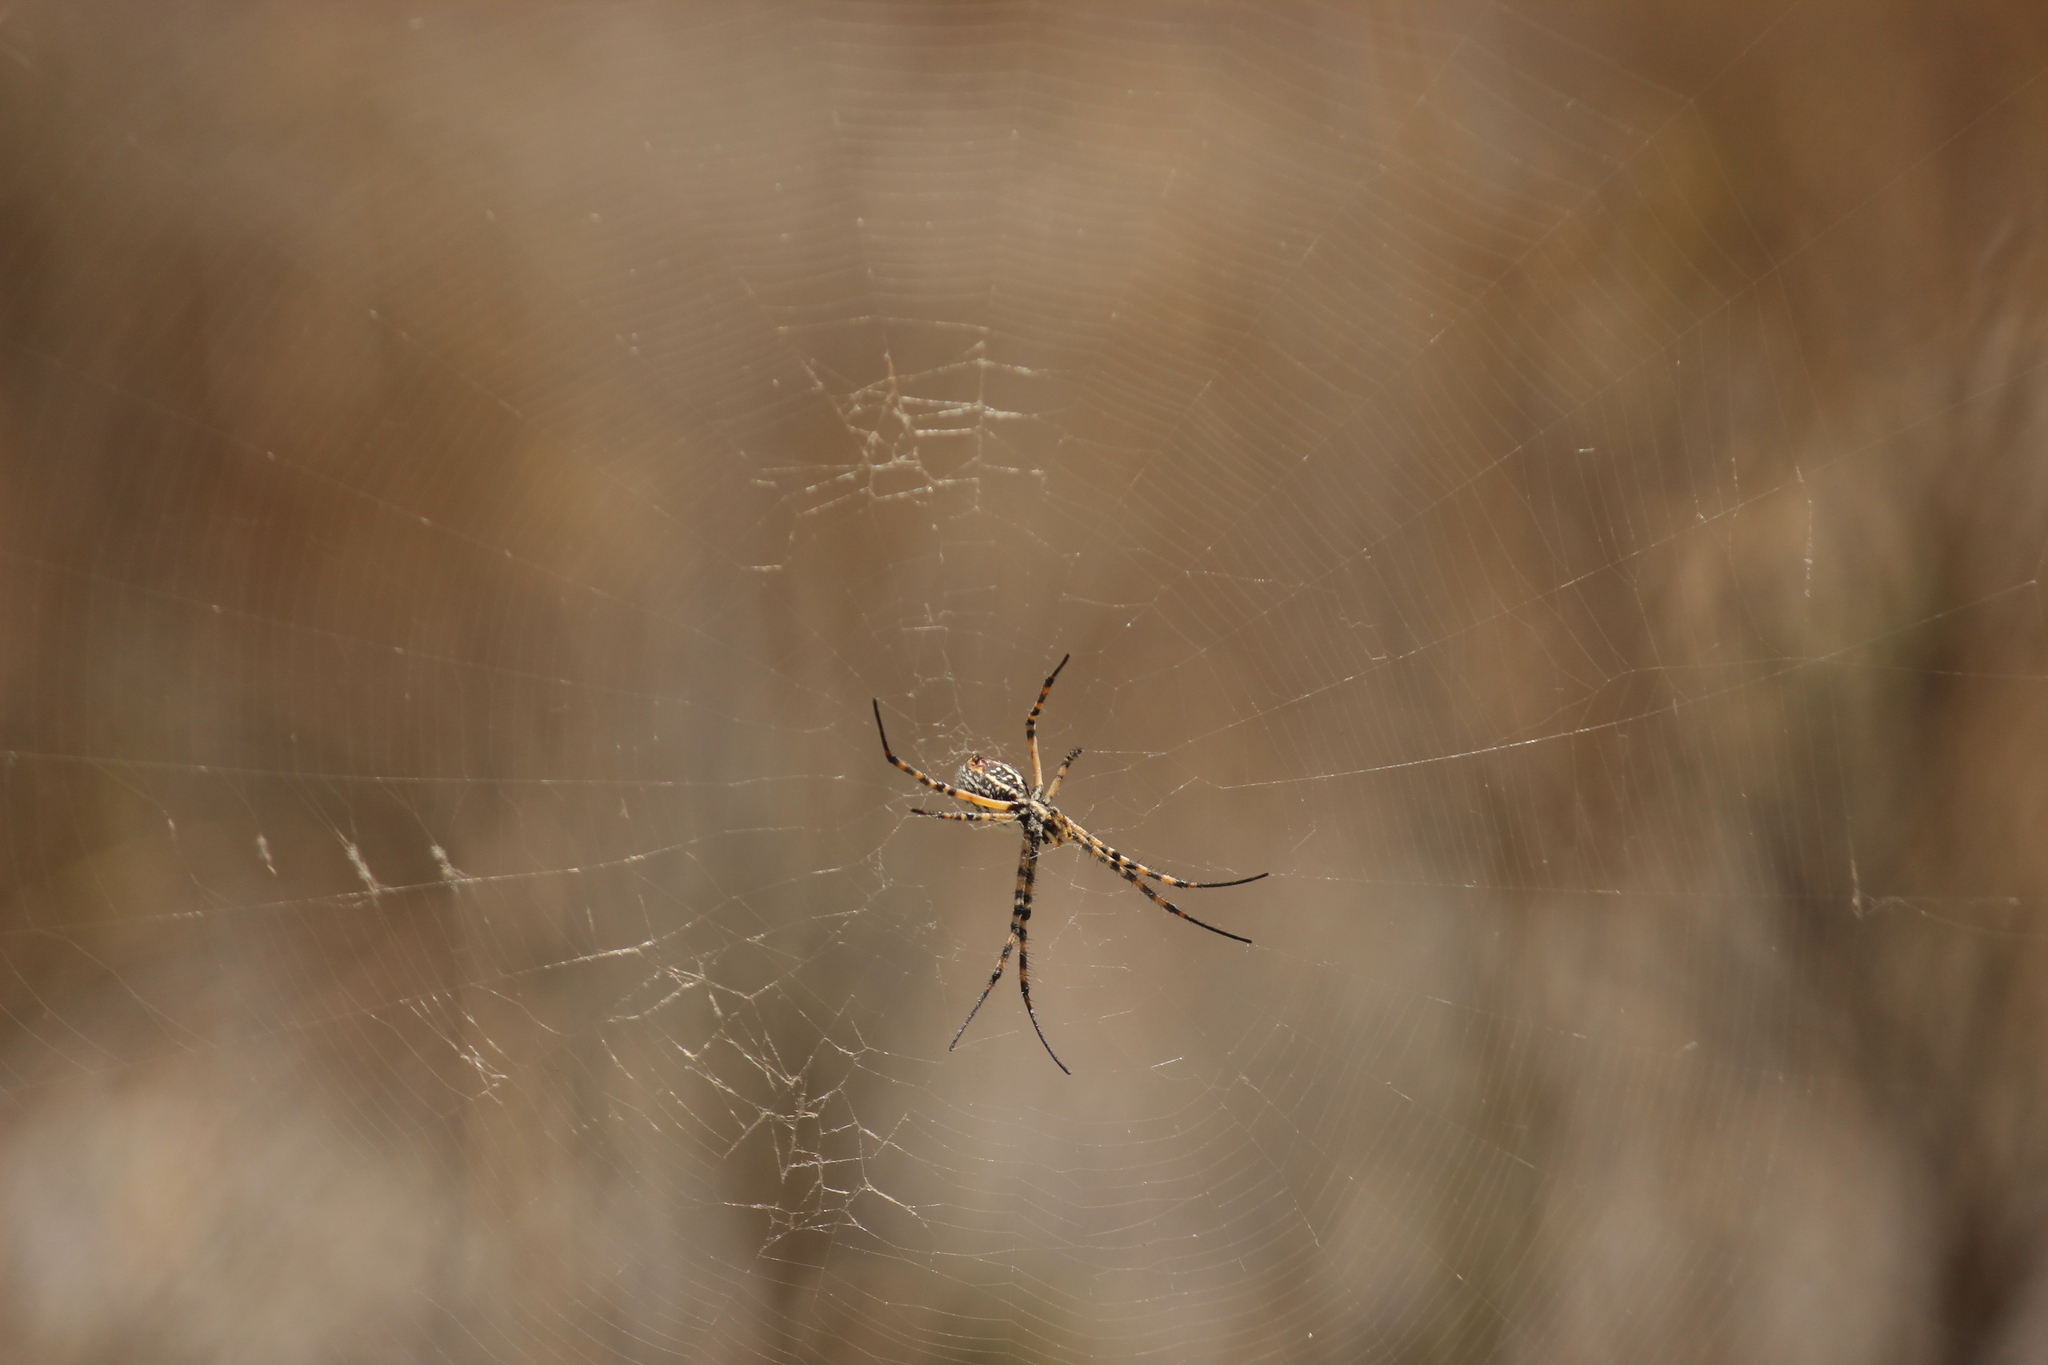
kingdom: Animalia
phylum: Arthropoda
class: Arachnida
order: Araneae
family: Araneidae
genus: Argiope
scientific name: Argiope trifasciata
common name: Banded garden spider
